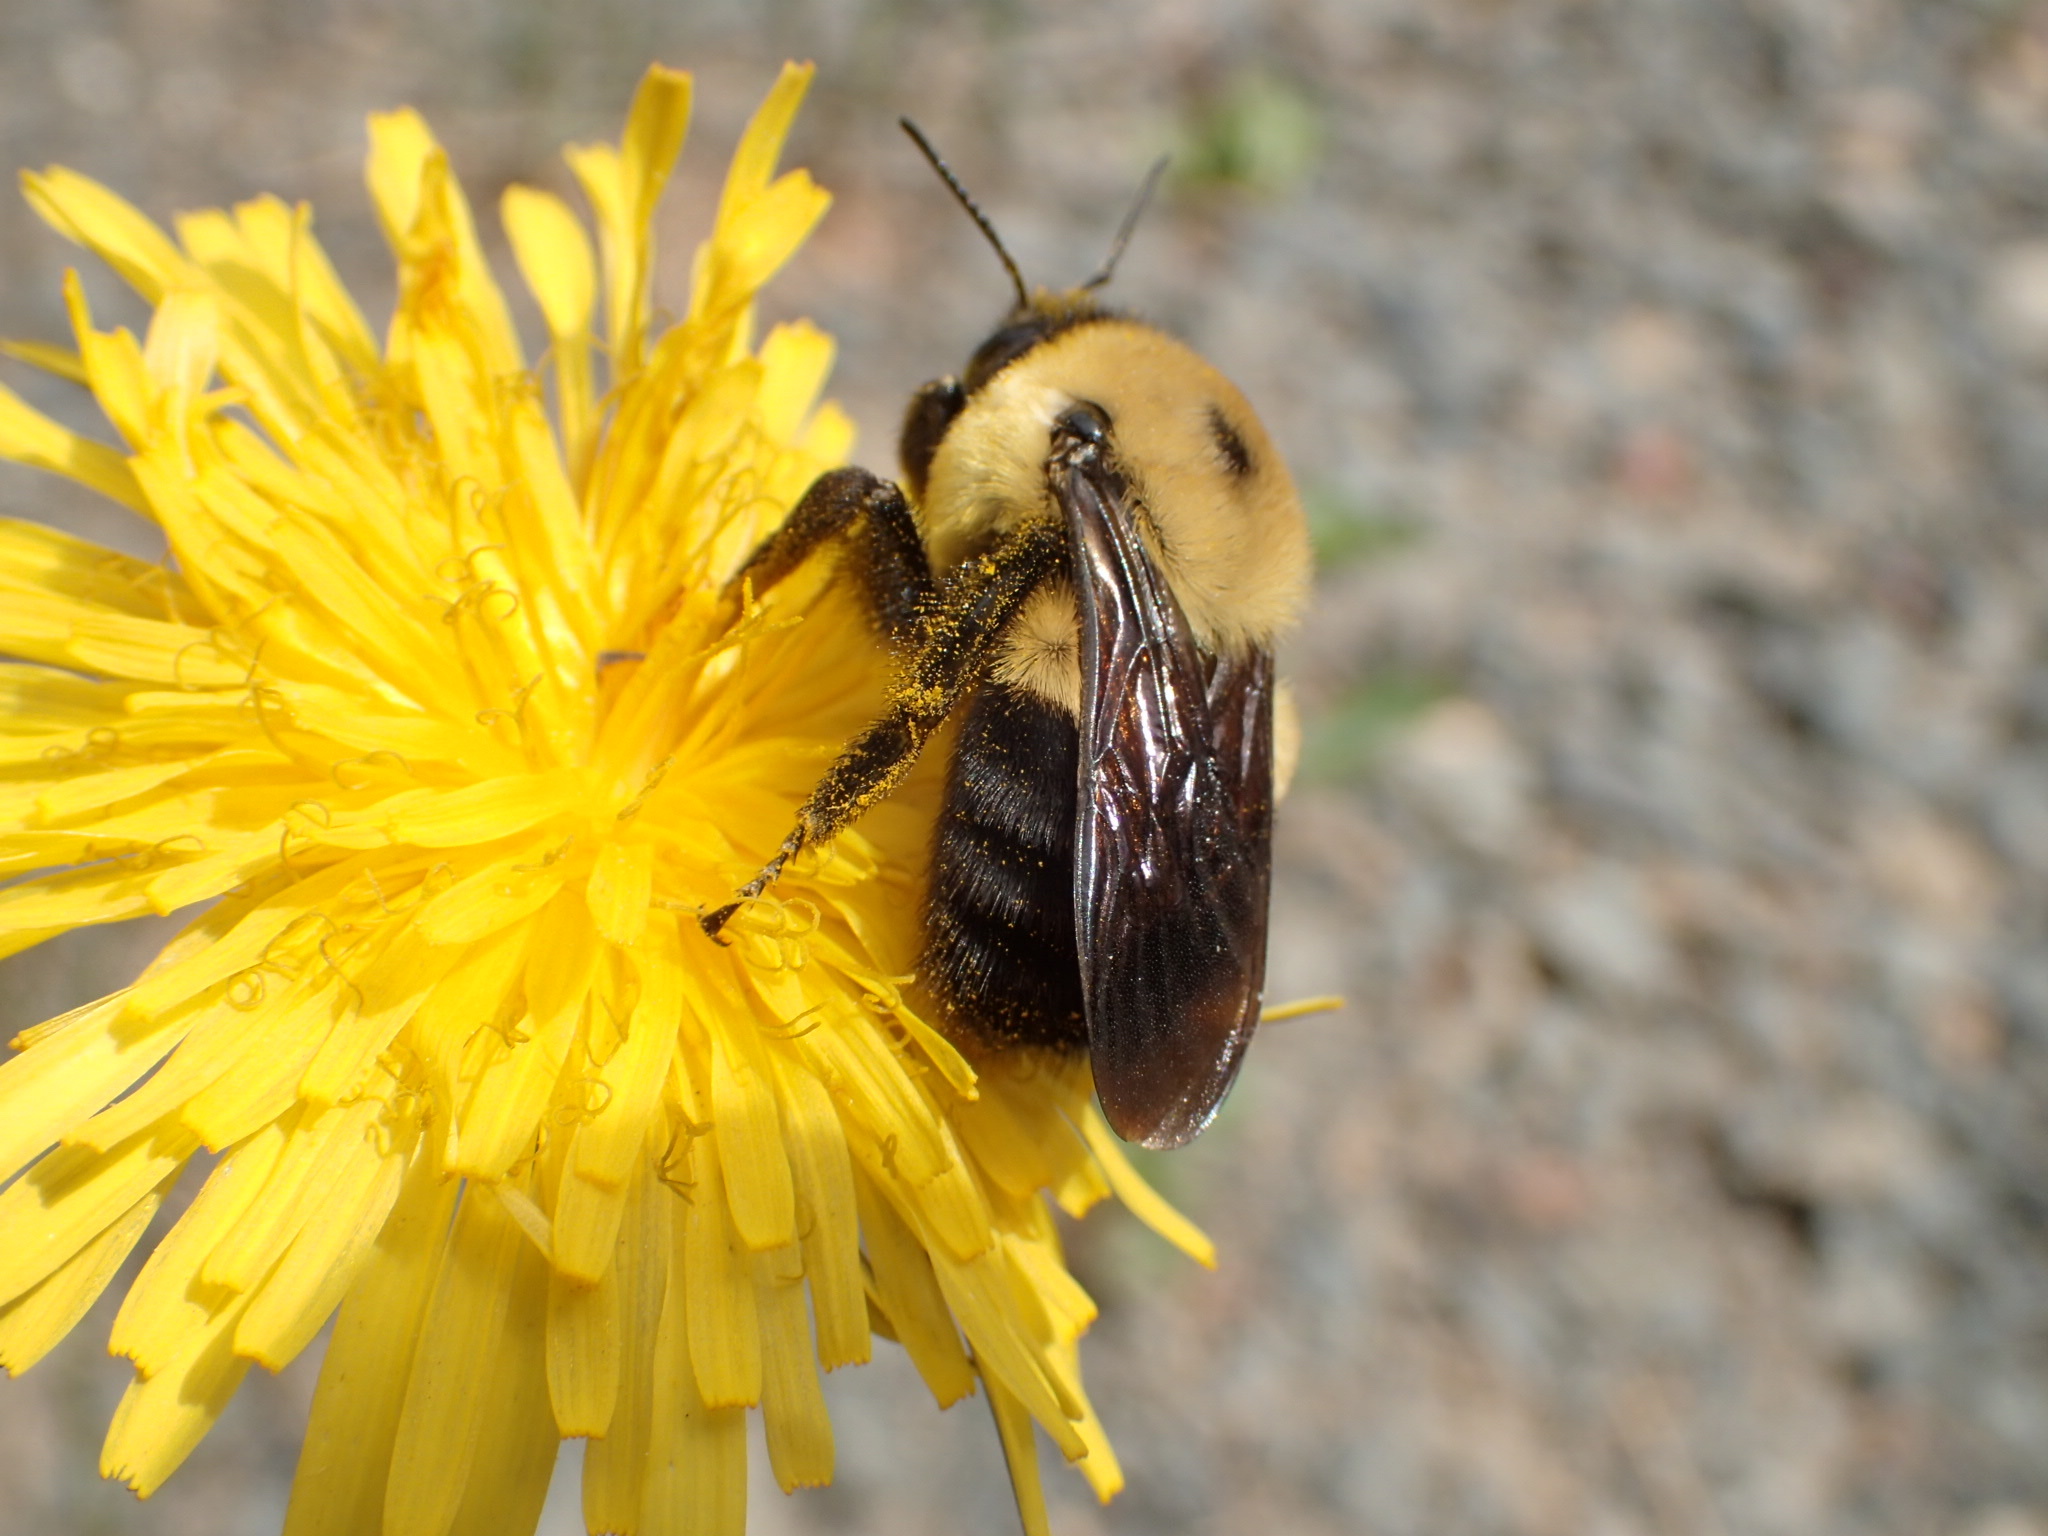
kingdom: Animalia
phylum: Arthropoda
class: Insecta
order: Hymenoptera
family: Apidae
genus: Bombus
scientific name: Bombus griseocollis
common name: Brown-belted bumble bee
